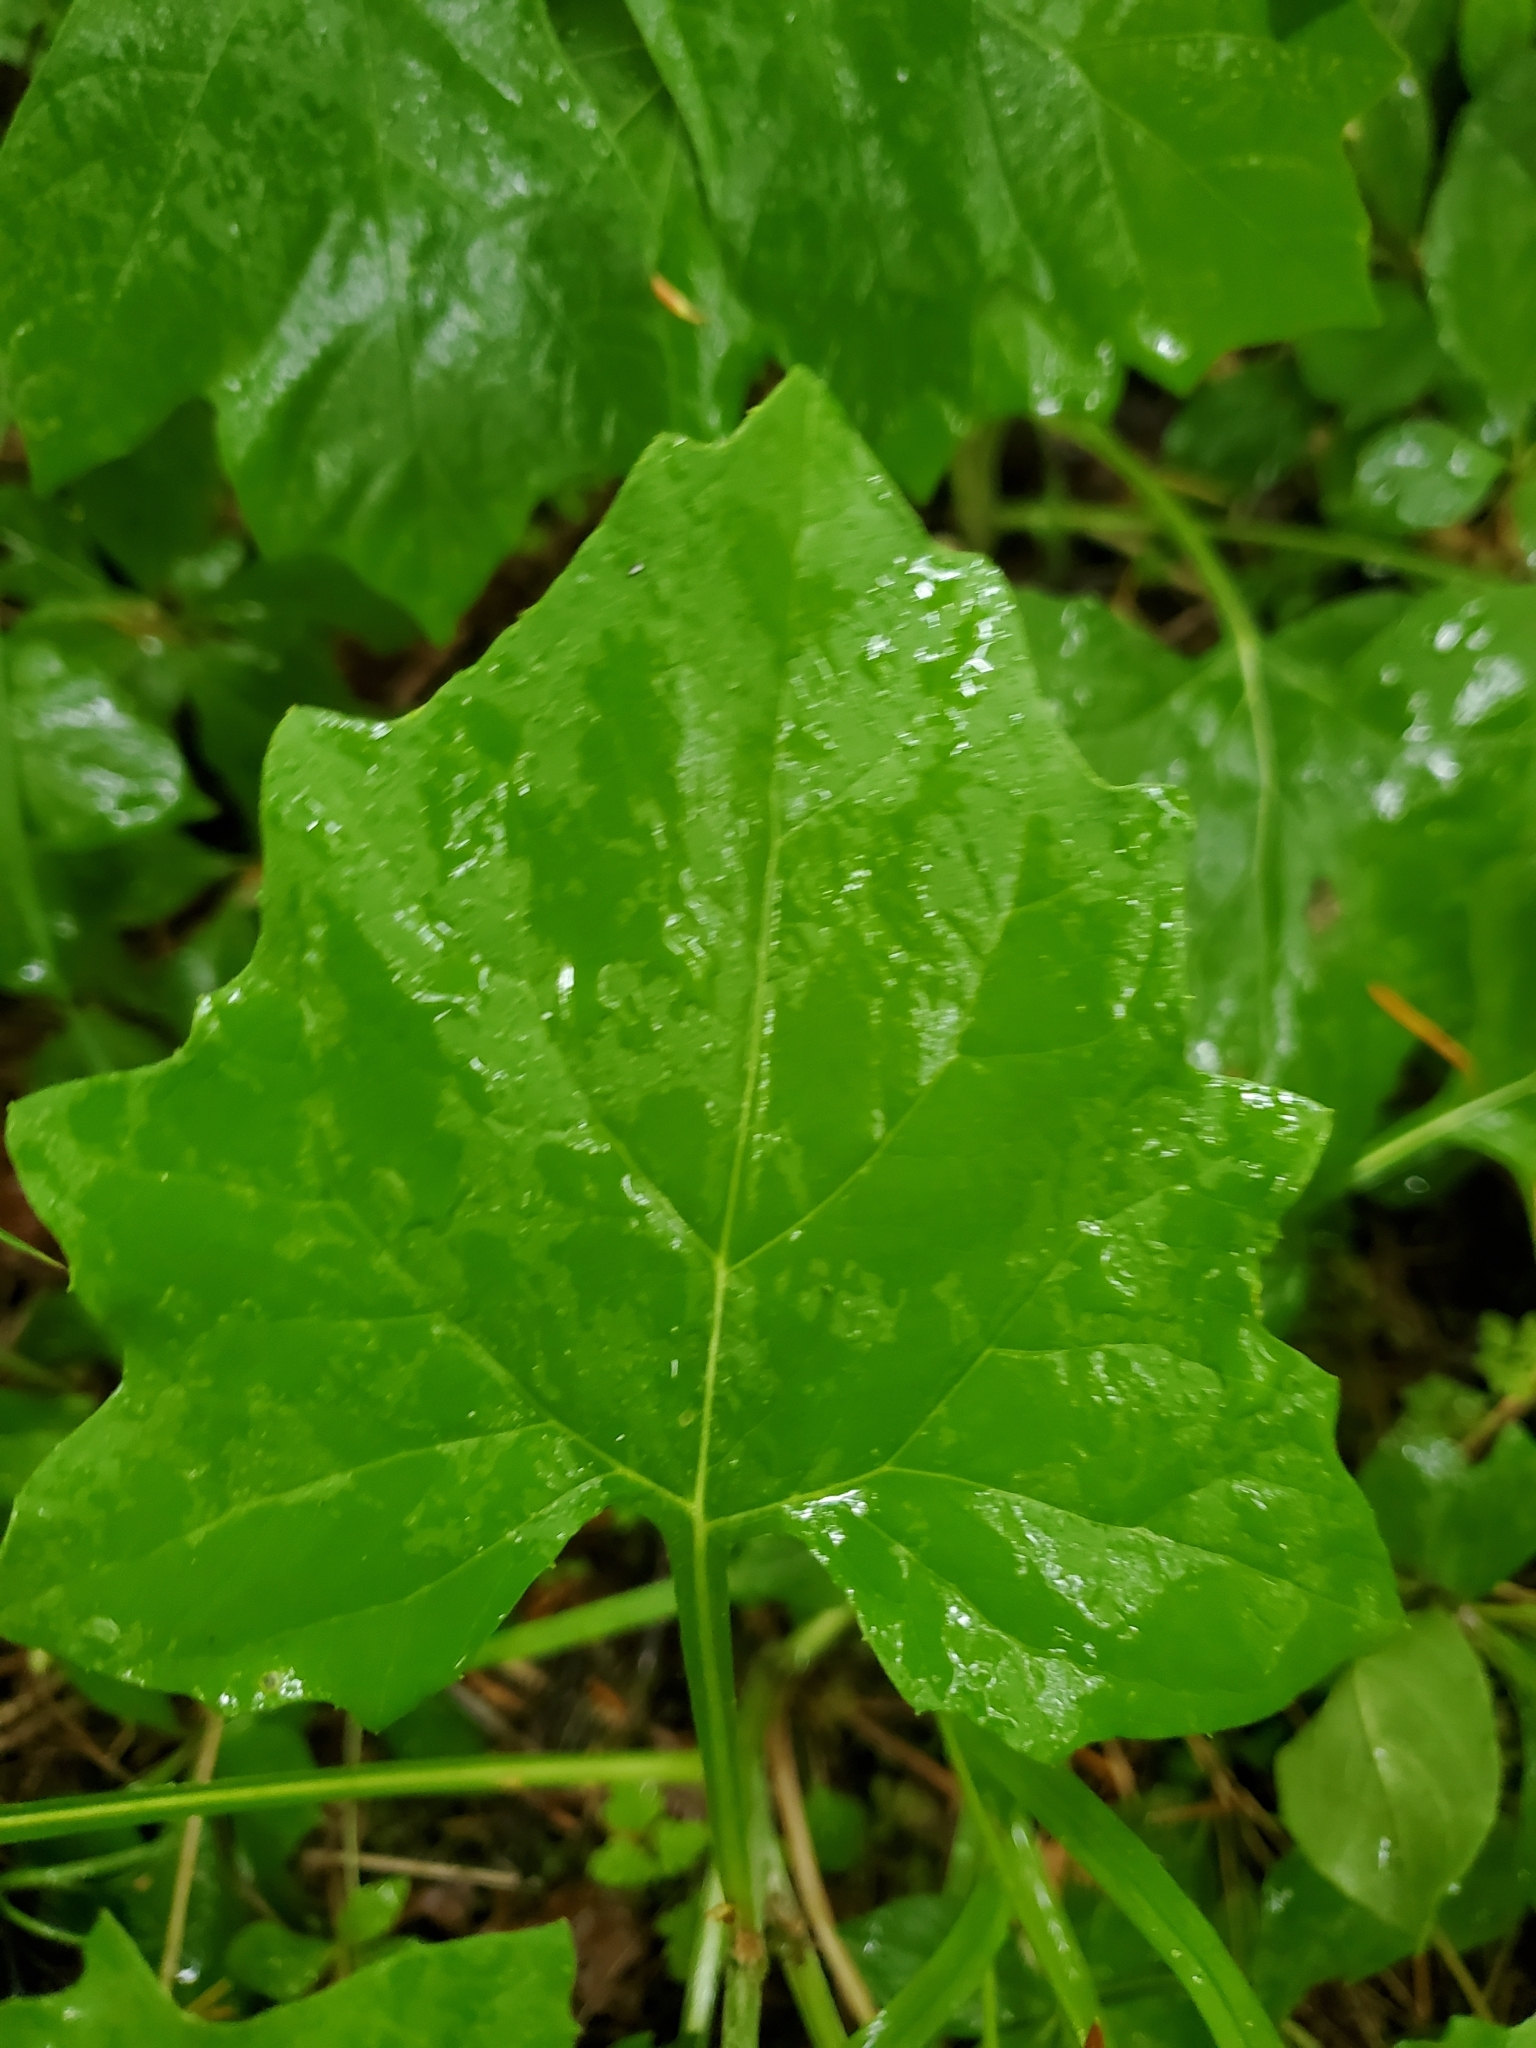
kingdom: Plantae
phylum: Tracheophyta
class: Magnoliopsida
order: Asterales
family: Asteraceae
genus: Adenocaulon
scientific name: Adenocaulon bicolor
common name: Trailplant
